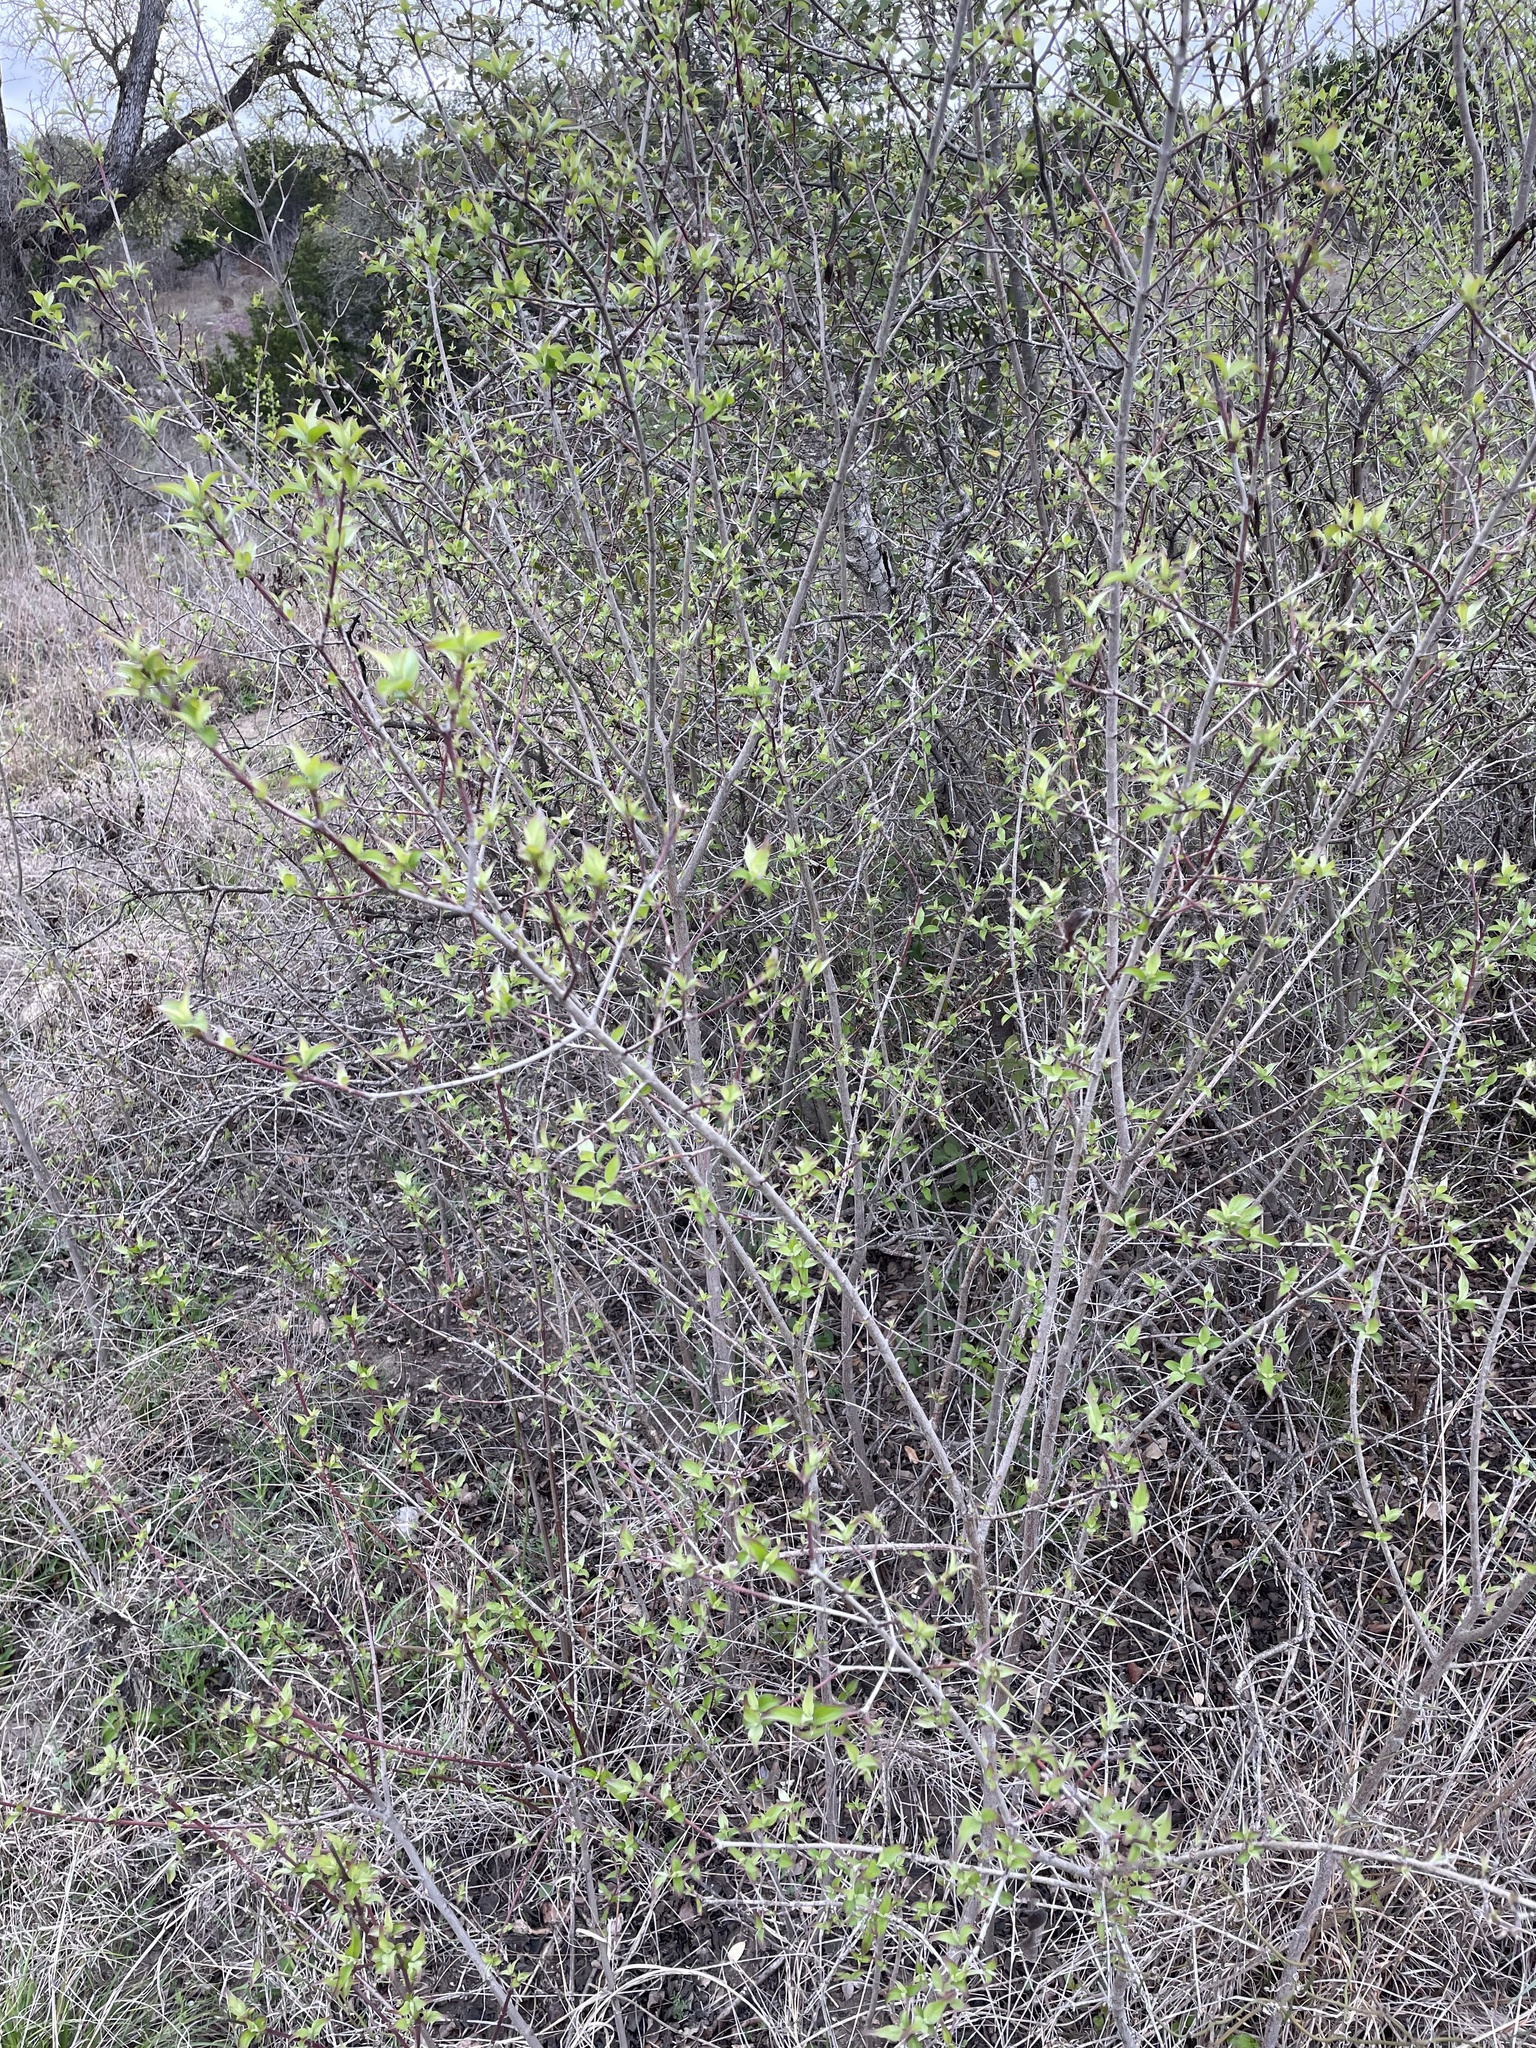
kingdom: Plantae
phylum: Tracheophyta
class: Magnoliopsida
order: Cornales
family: Cornaceae
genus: Cornus
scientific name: Cornus drummondii
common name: Rough-leaf dogwood
